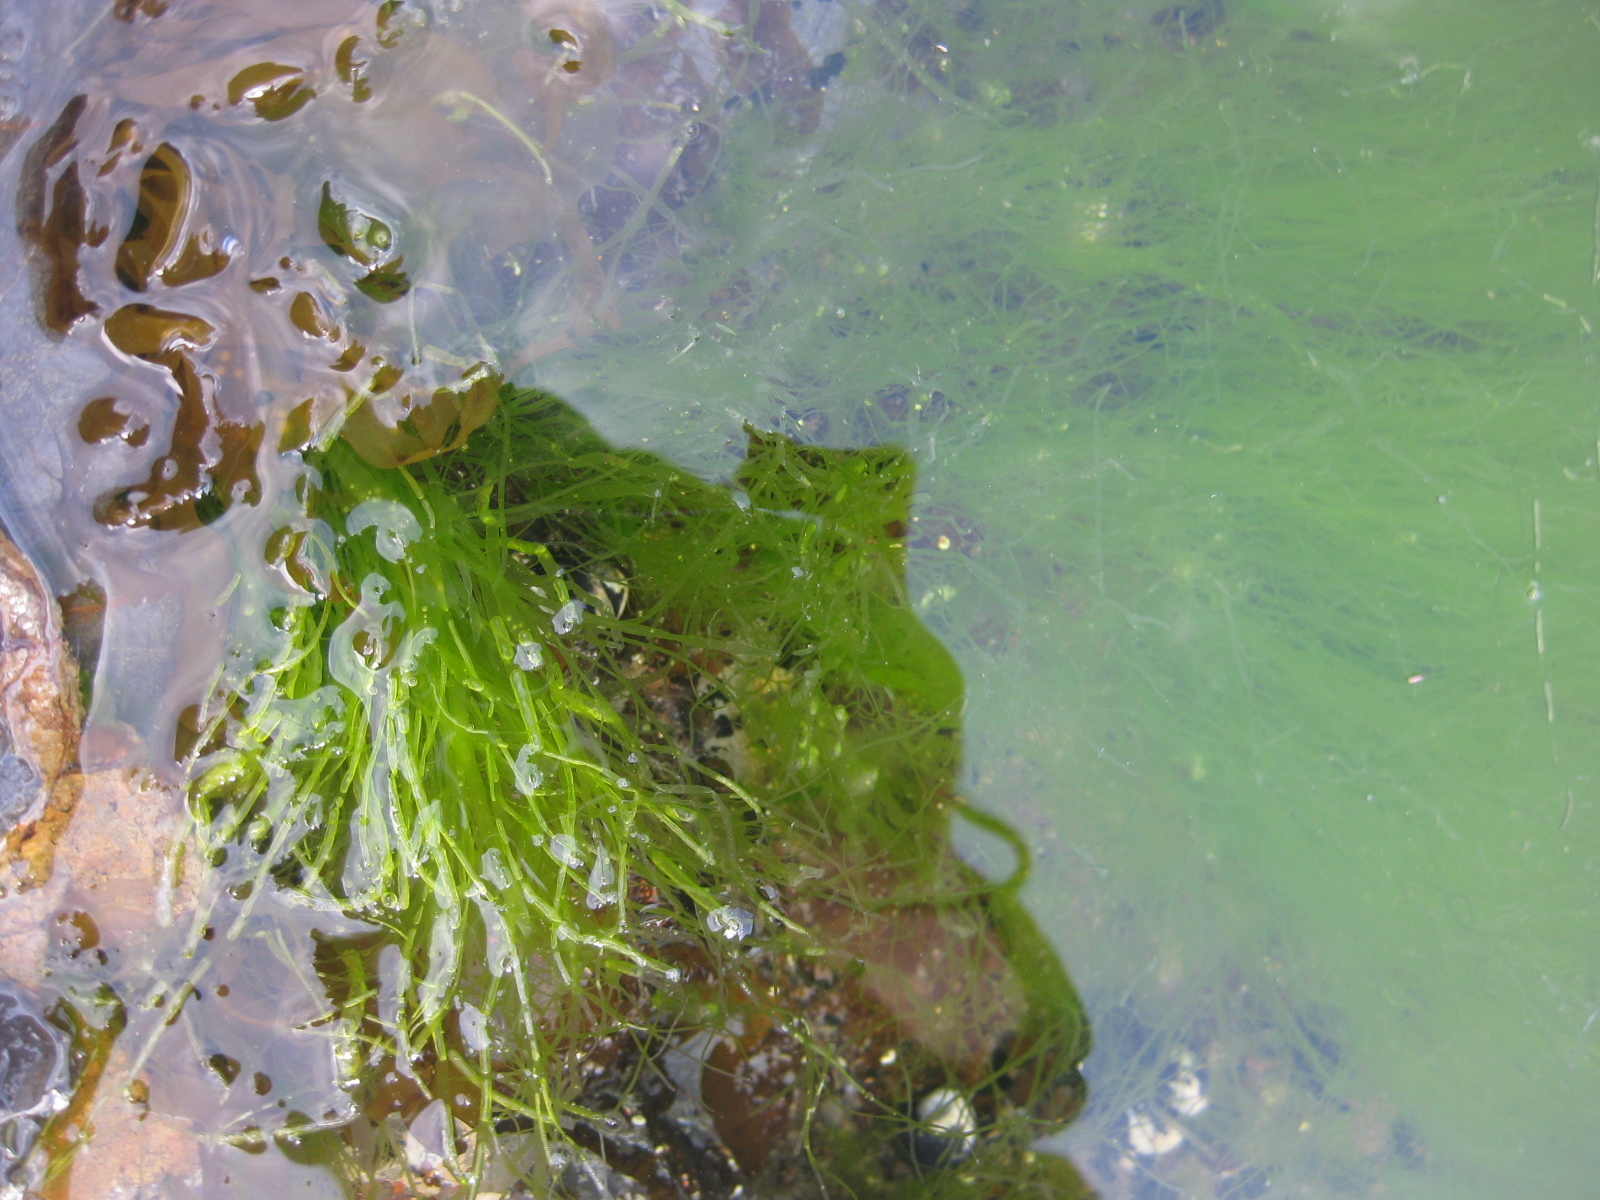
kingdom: Plantae
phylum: Chlorophyta
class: Ulvophyceae
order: Ulvales
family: Ulvaceae
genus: Ulva
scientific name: Ulva intestinalis
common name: Gut weed
